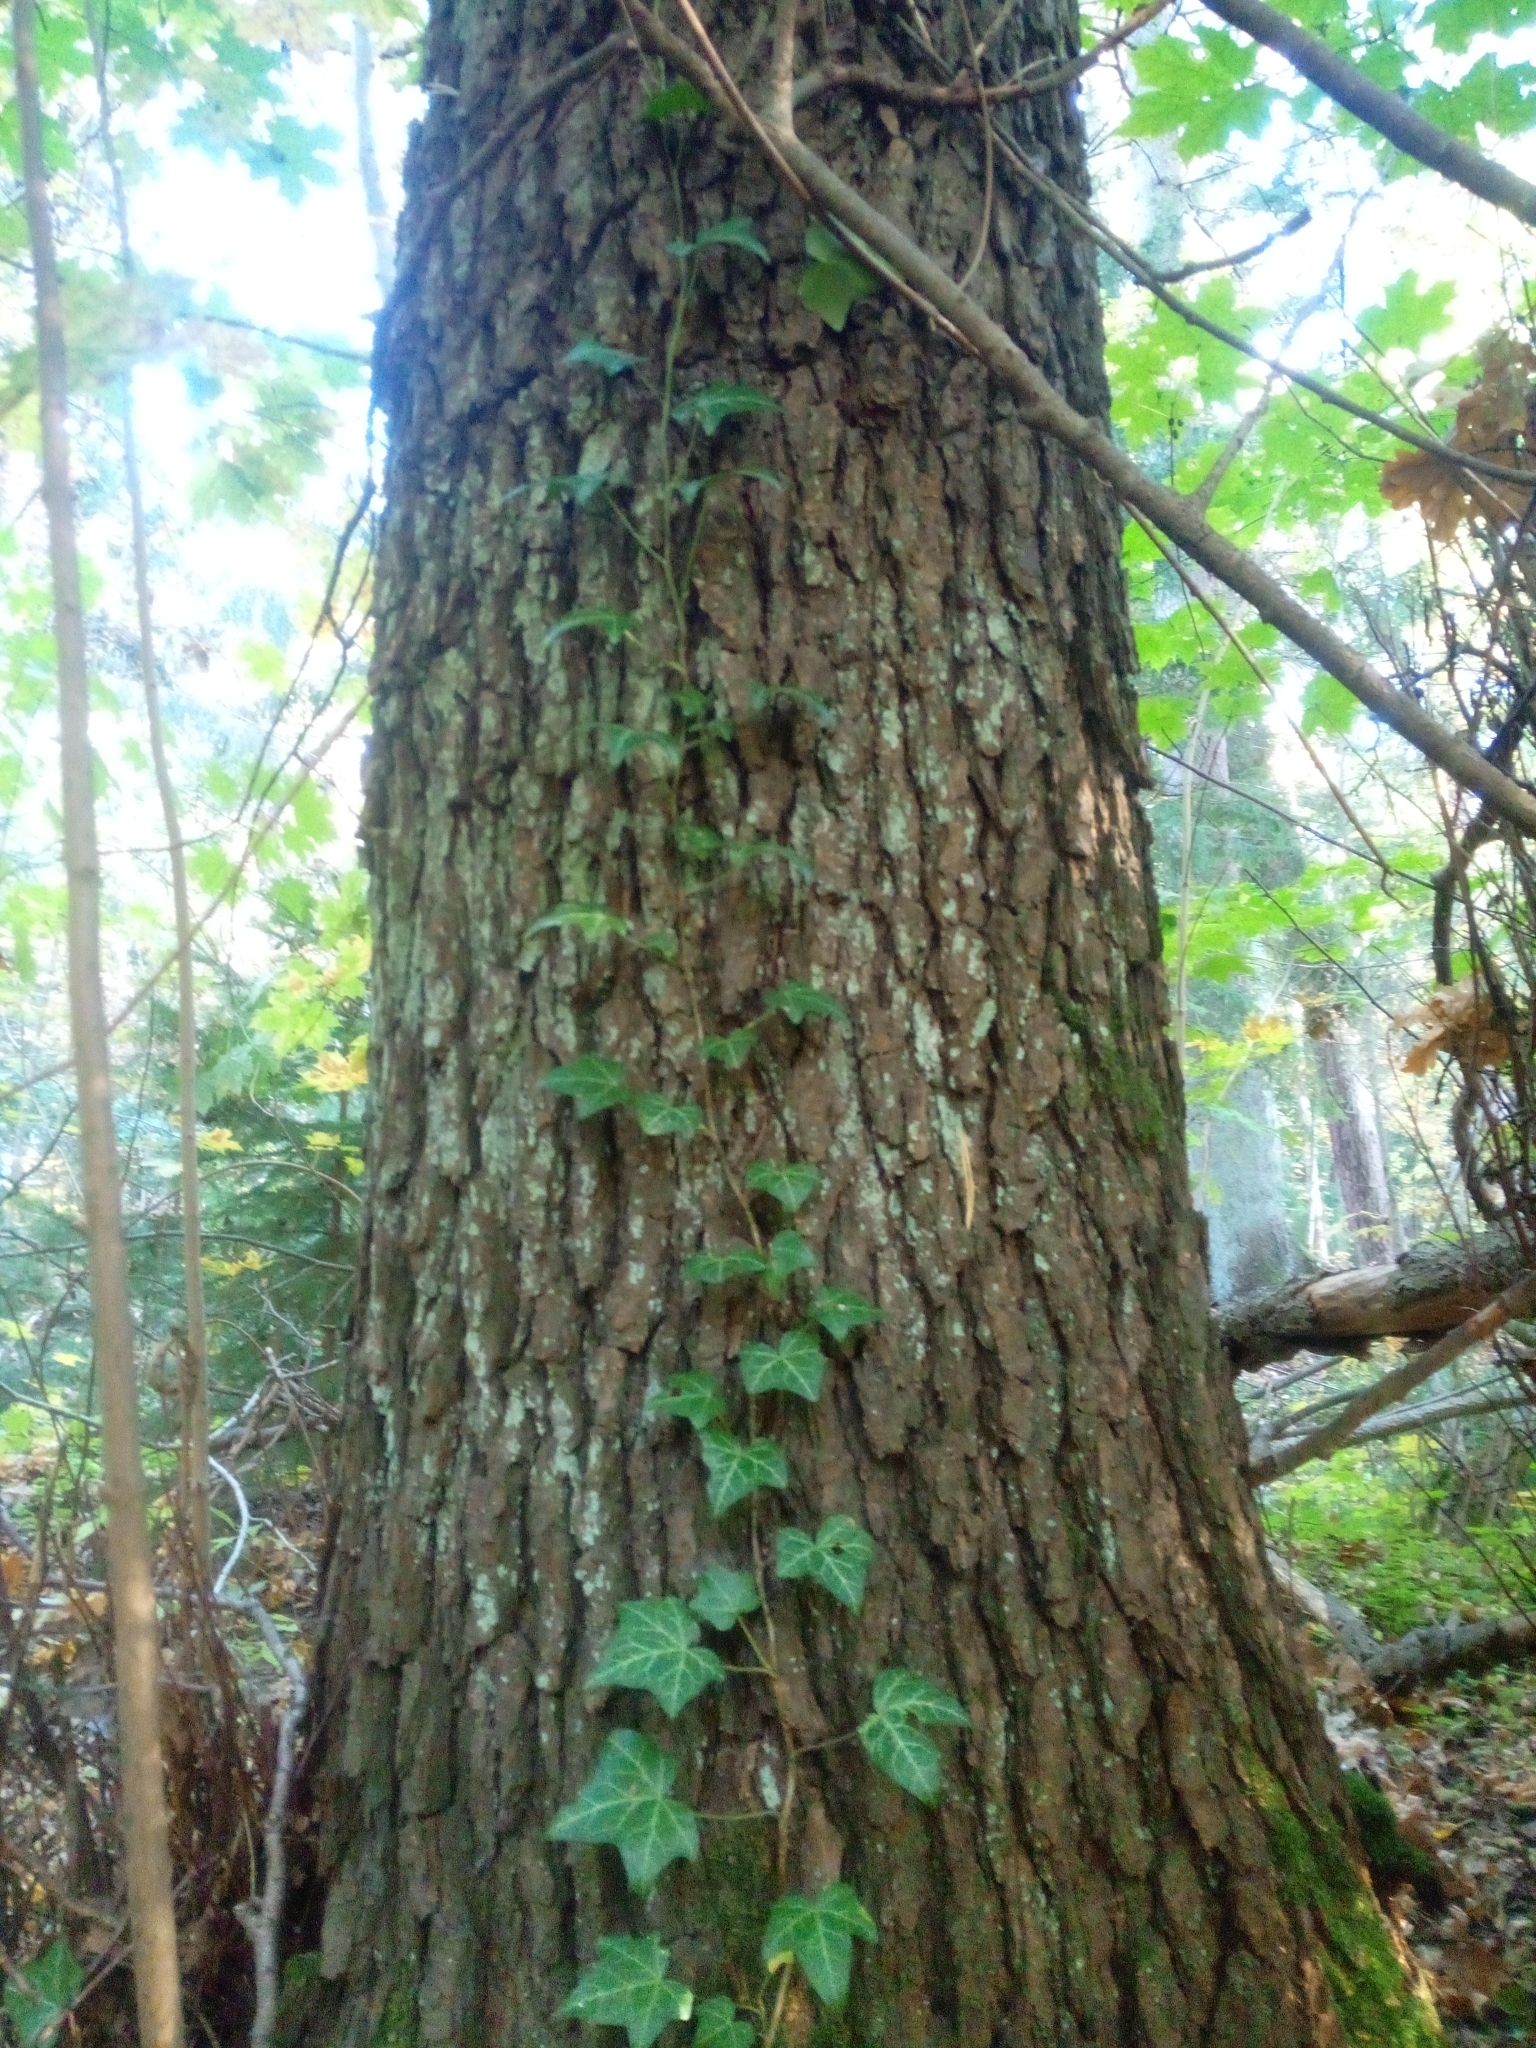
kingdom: Plantae
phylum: Tracheophyta
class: Magnoliopsida
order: Apiales
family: Araliaceae
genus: Hedera
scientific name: Hedera helix
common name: Ivy
